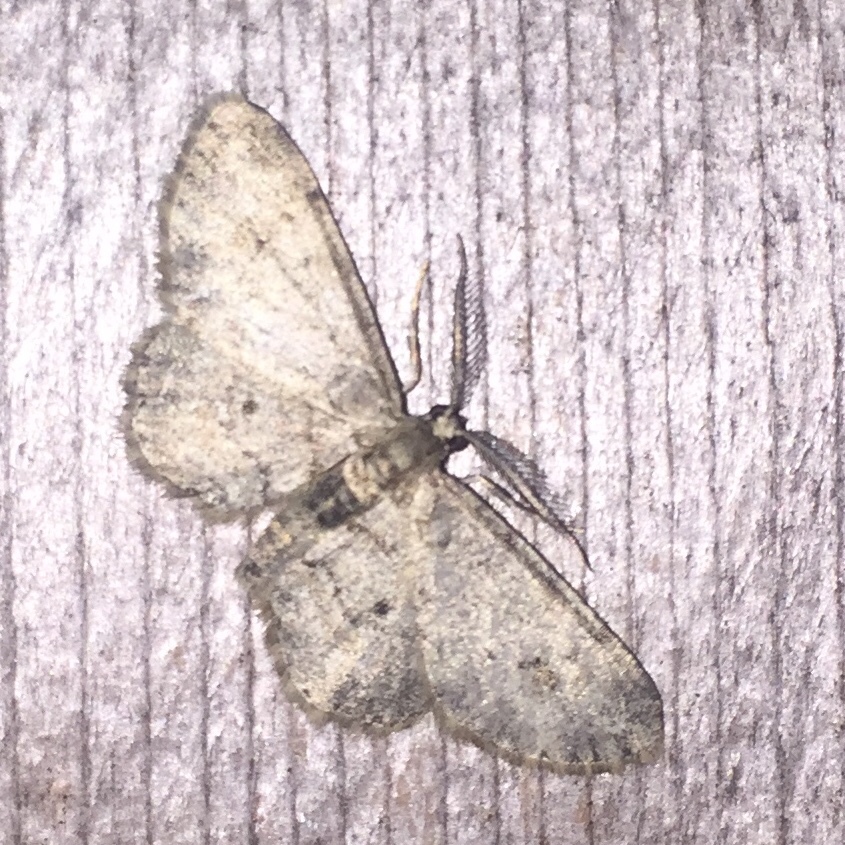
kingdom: Animalia
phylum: Arthropoda
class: Insecta
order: Lepidoptera
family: Geometridae
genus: Glenoides
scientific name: Glenoides texanaria
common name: Texas gray
